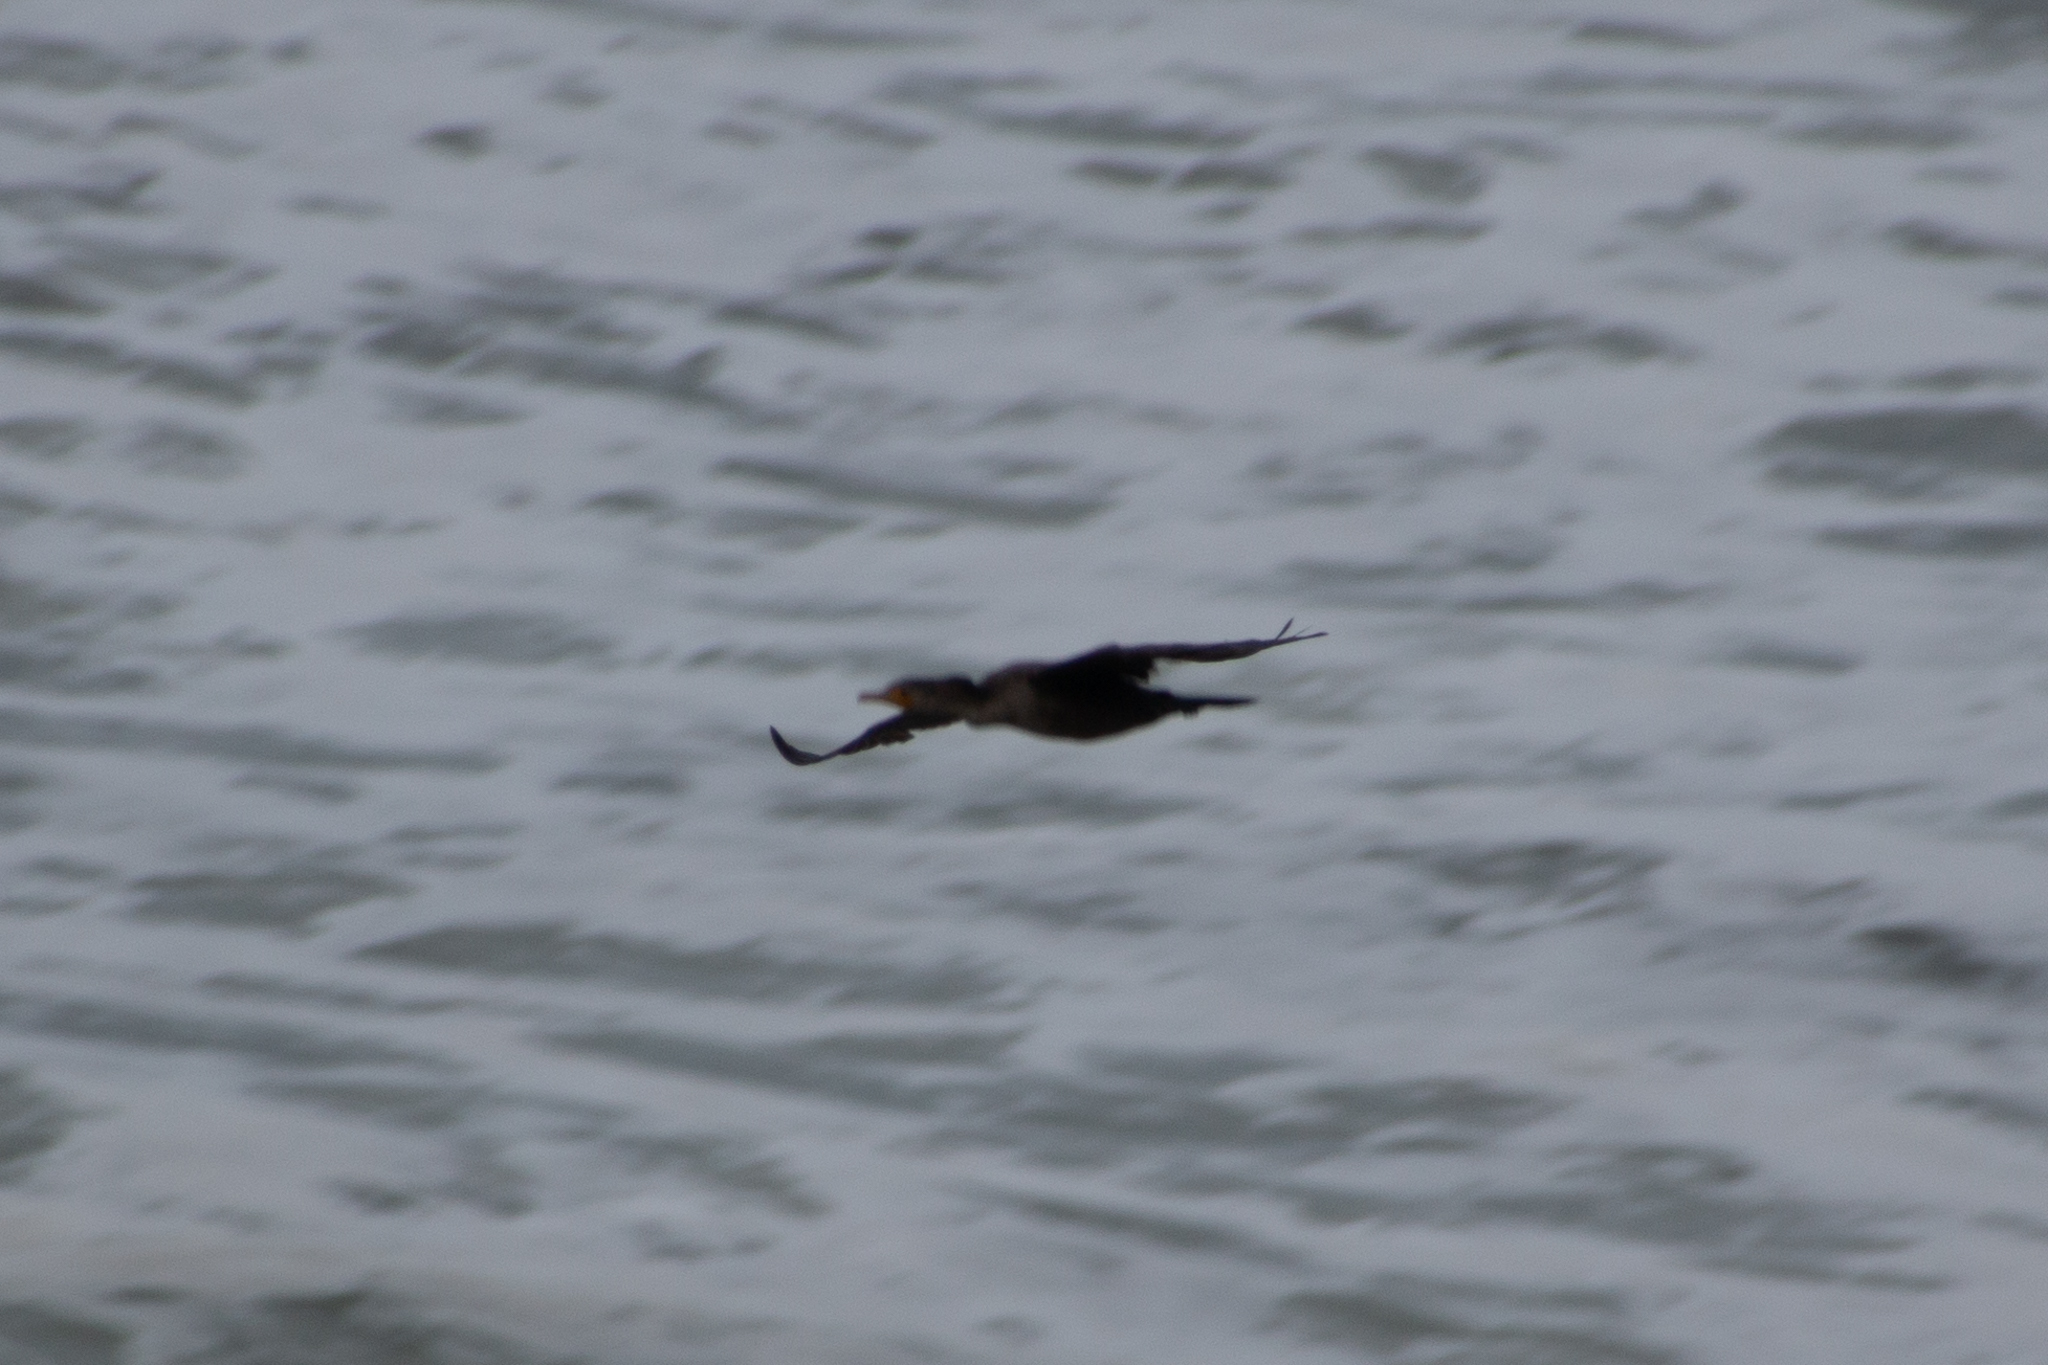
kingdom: Animalia
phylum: Chordata
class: Aves
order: Suliformes
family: Phalacrocoracidae
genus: Phalacrocorax
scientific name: Phalacrocorax auritus
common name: Double-crested cormorant
